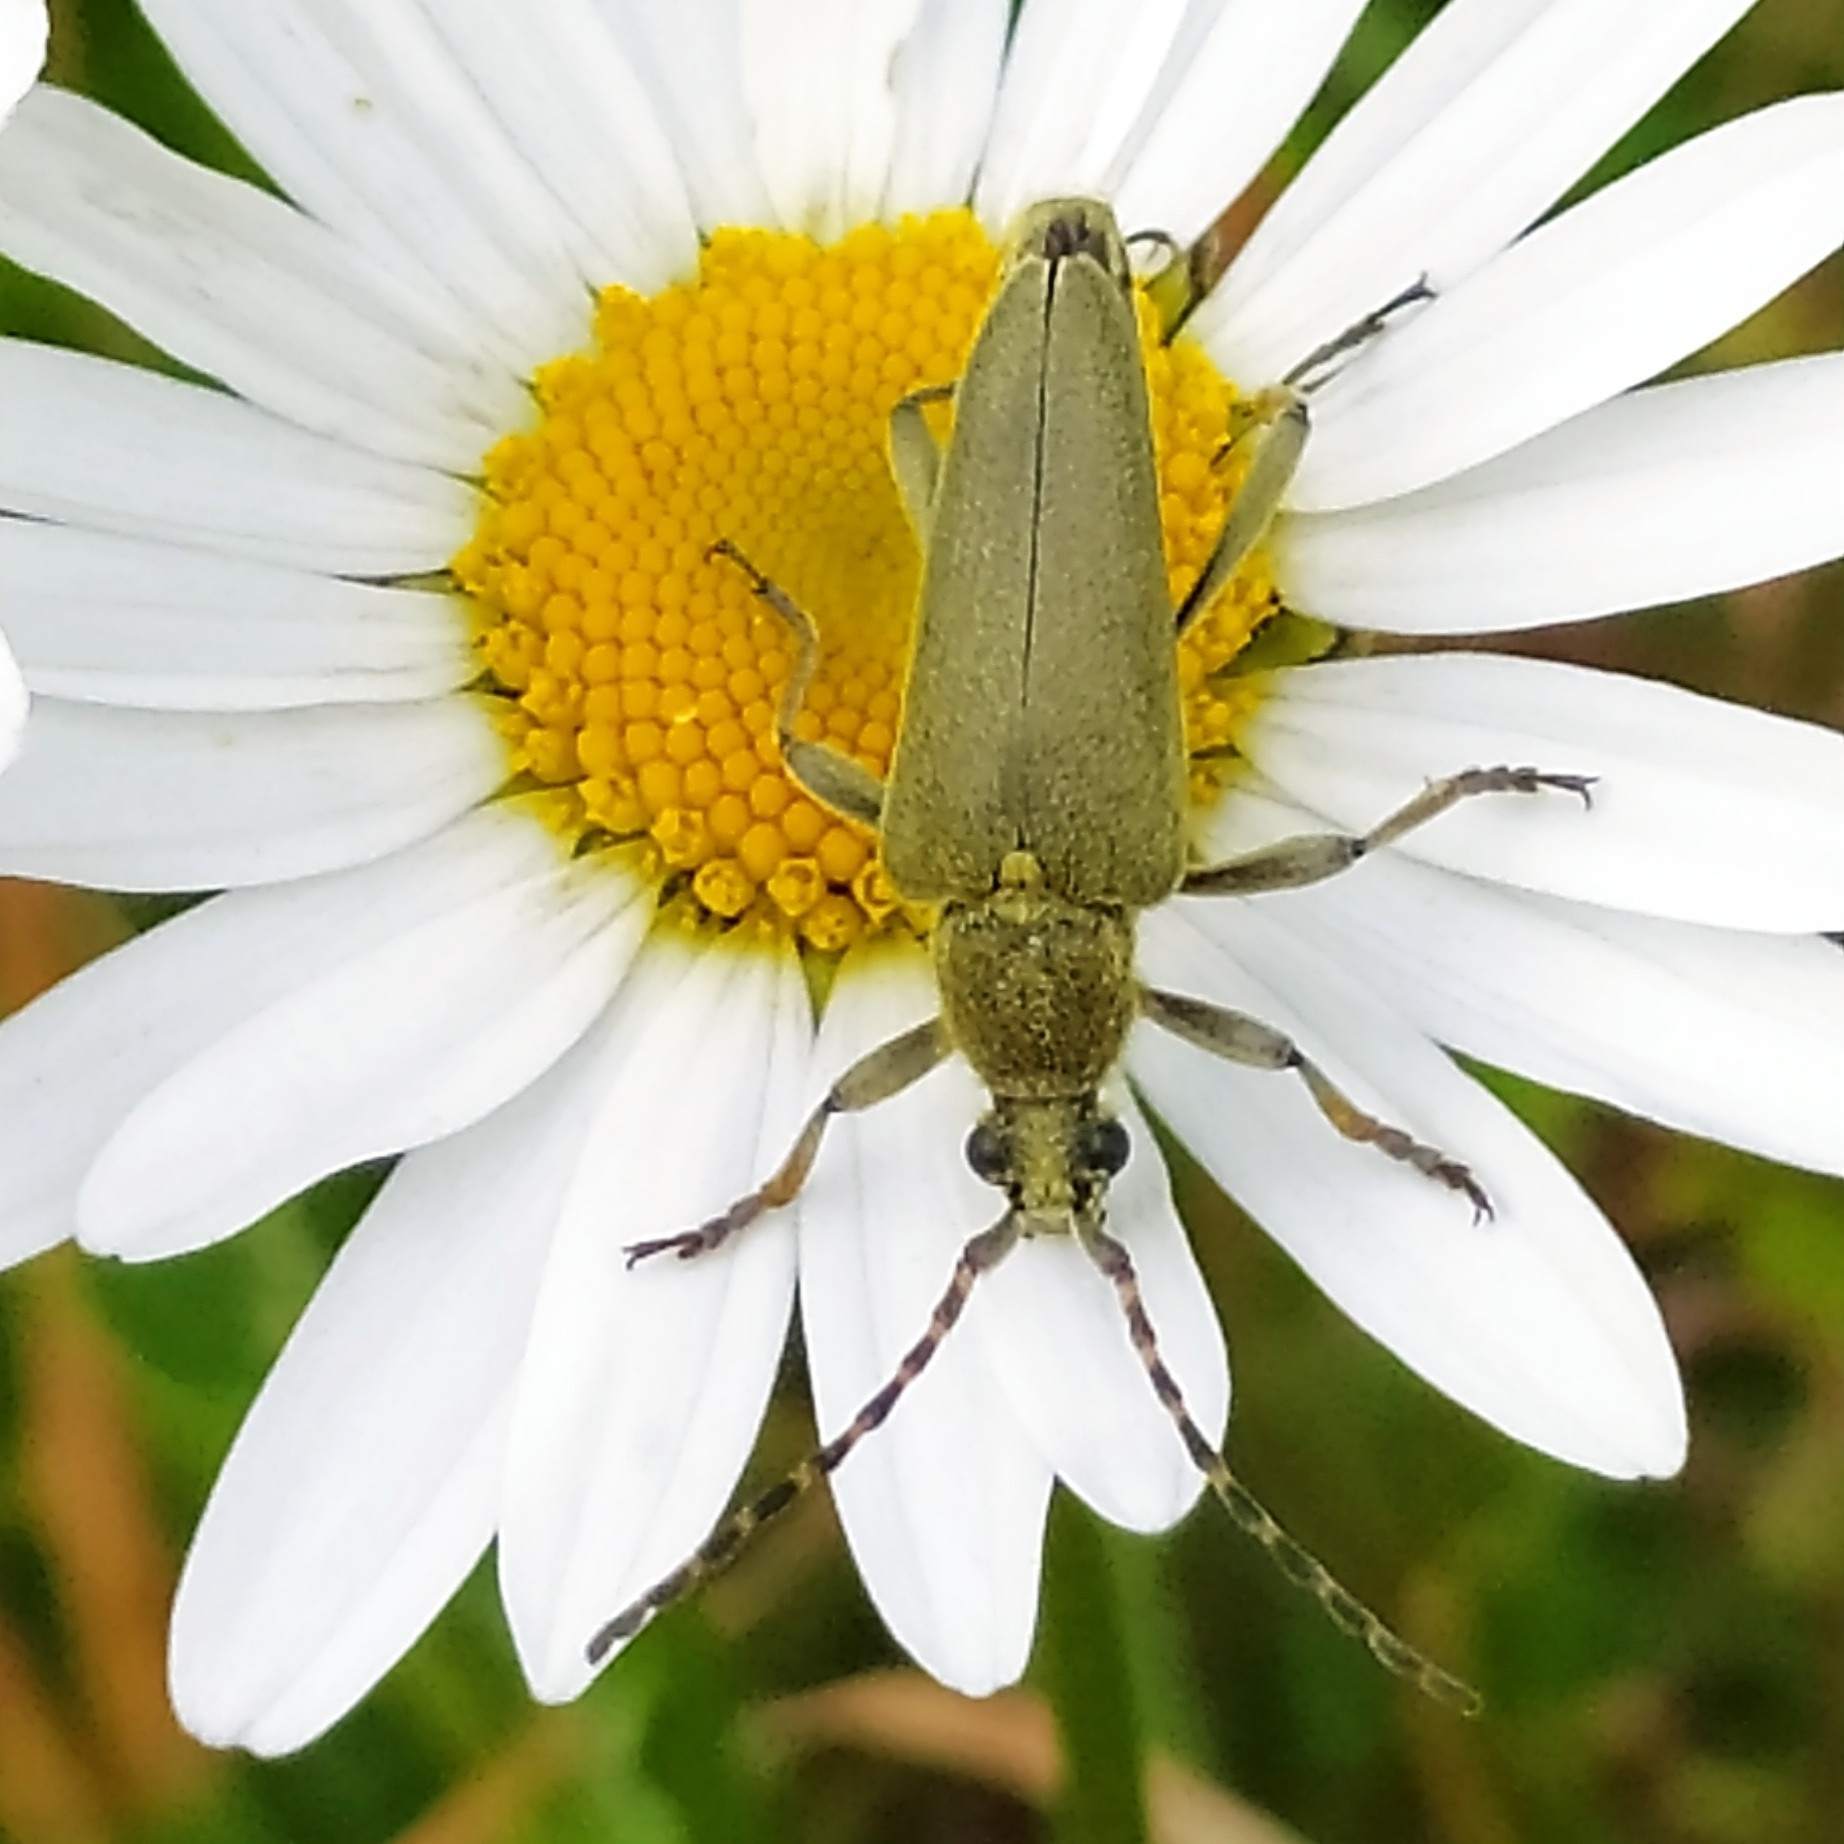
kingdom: Animalia
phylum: Arthropoda
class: Insecta
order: Coleoptera
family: Cerambycidae
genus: Lepturobosca
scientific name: Lepturobosca virens
